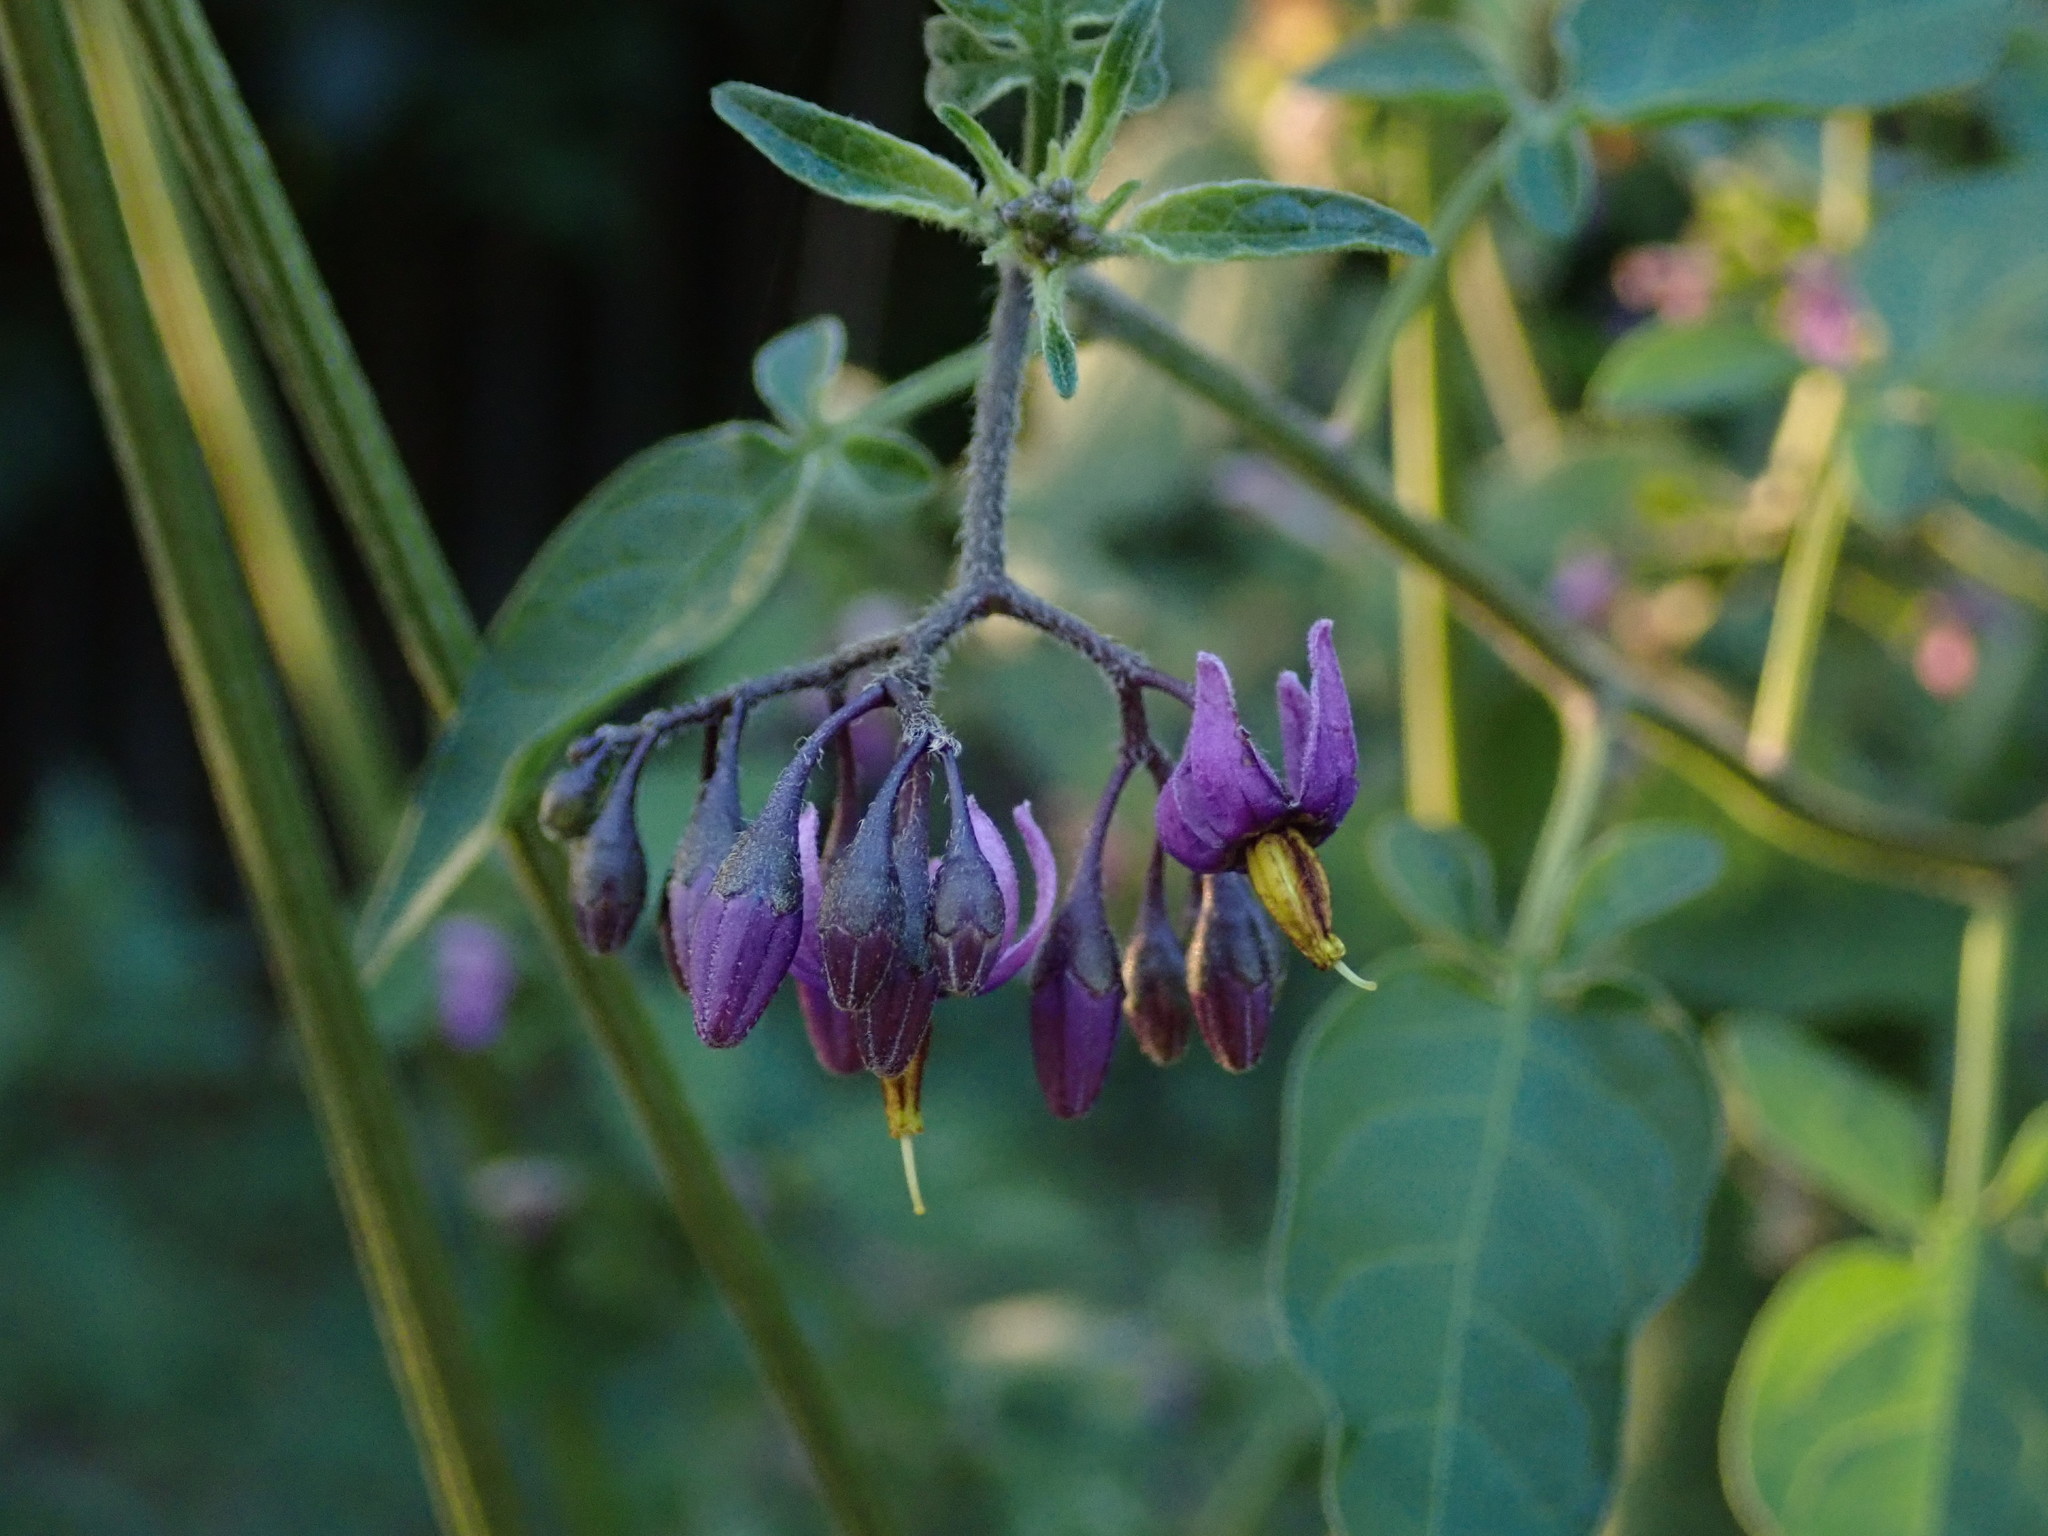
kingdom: Plantae
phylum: Tracheophyta
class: Magnoliopsida
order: Solanales
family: Solanaceae
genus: Solanum
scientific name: Solanum dulcamara
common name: Climbing nightshade
